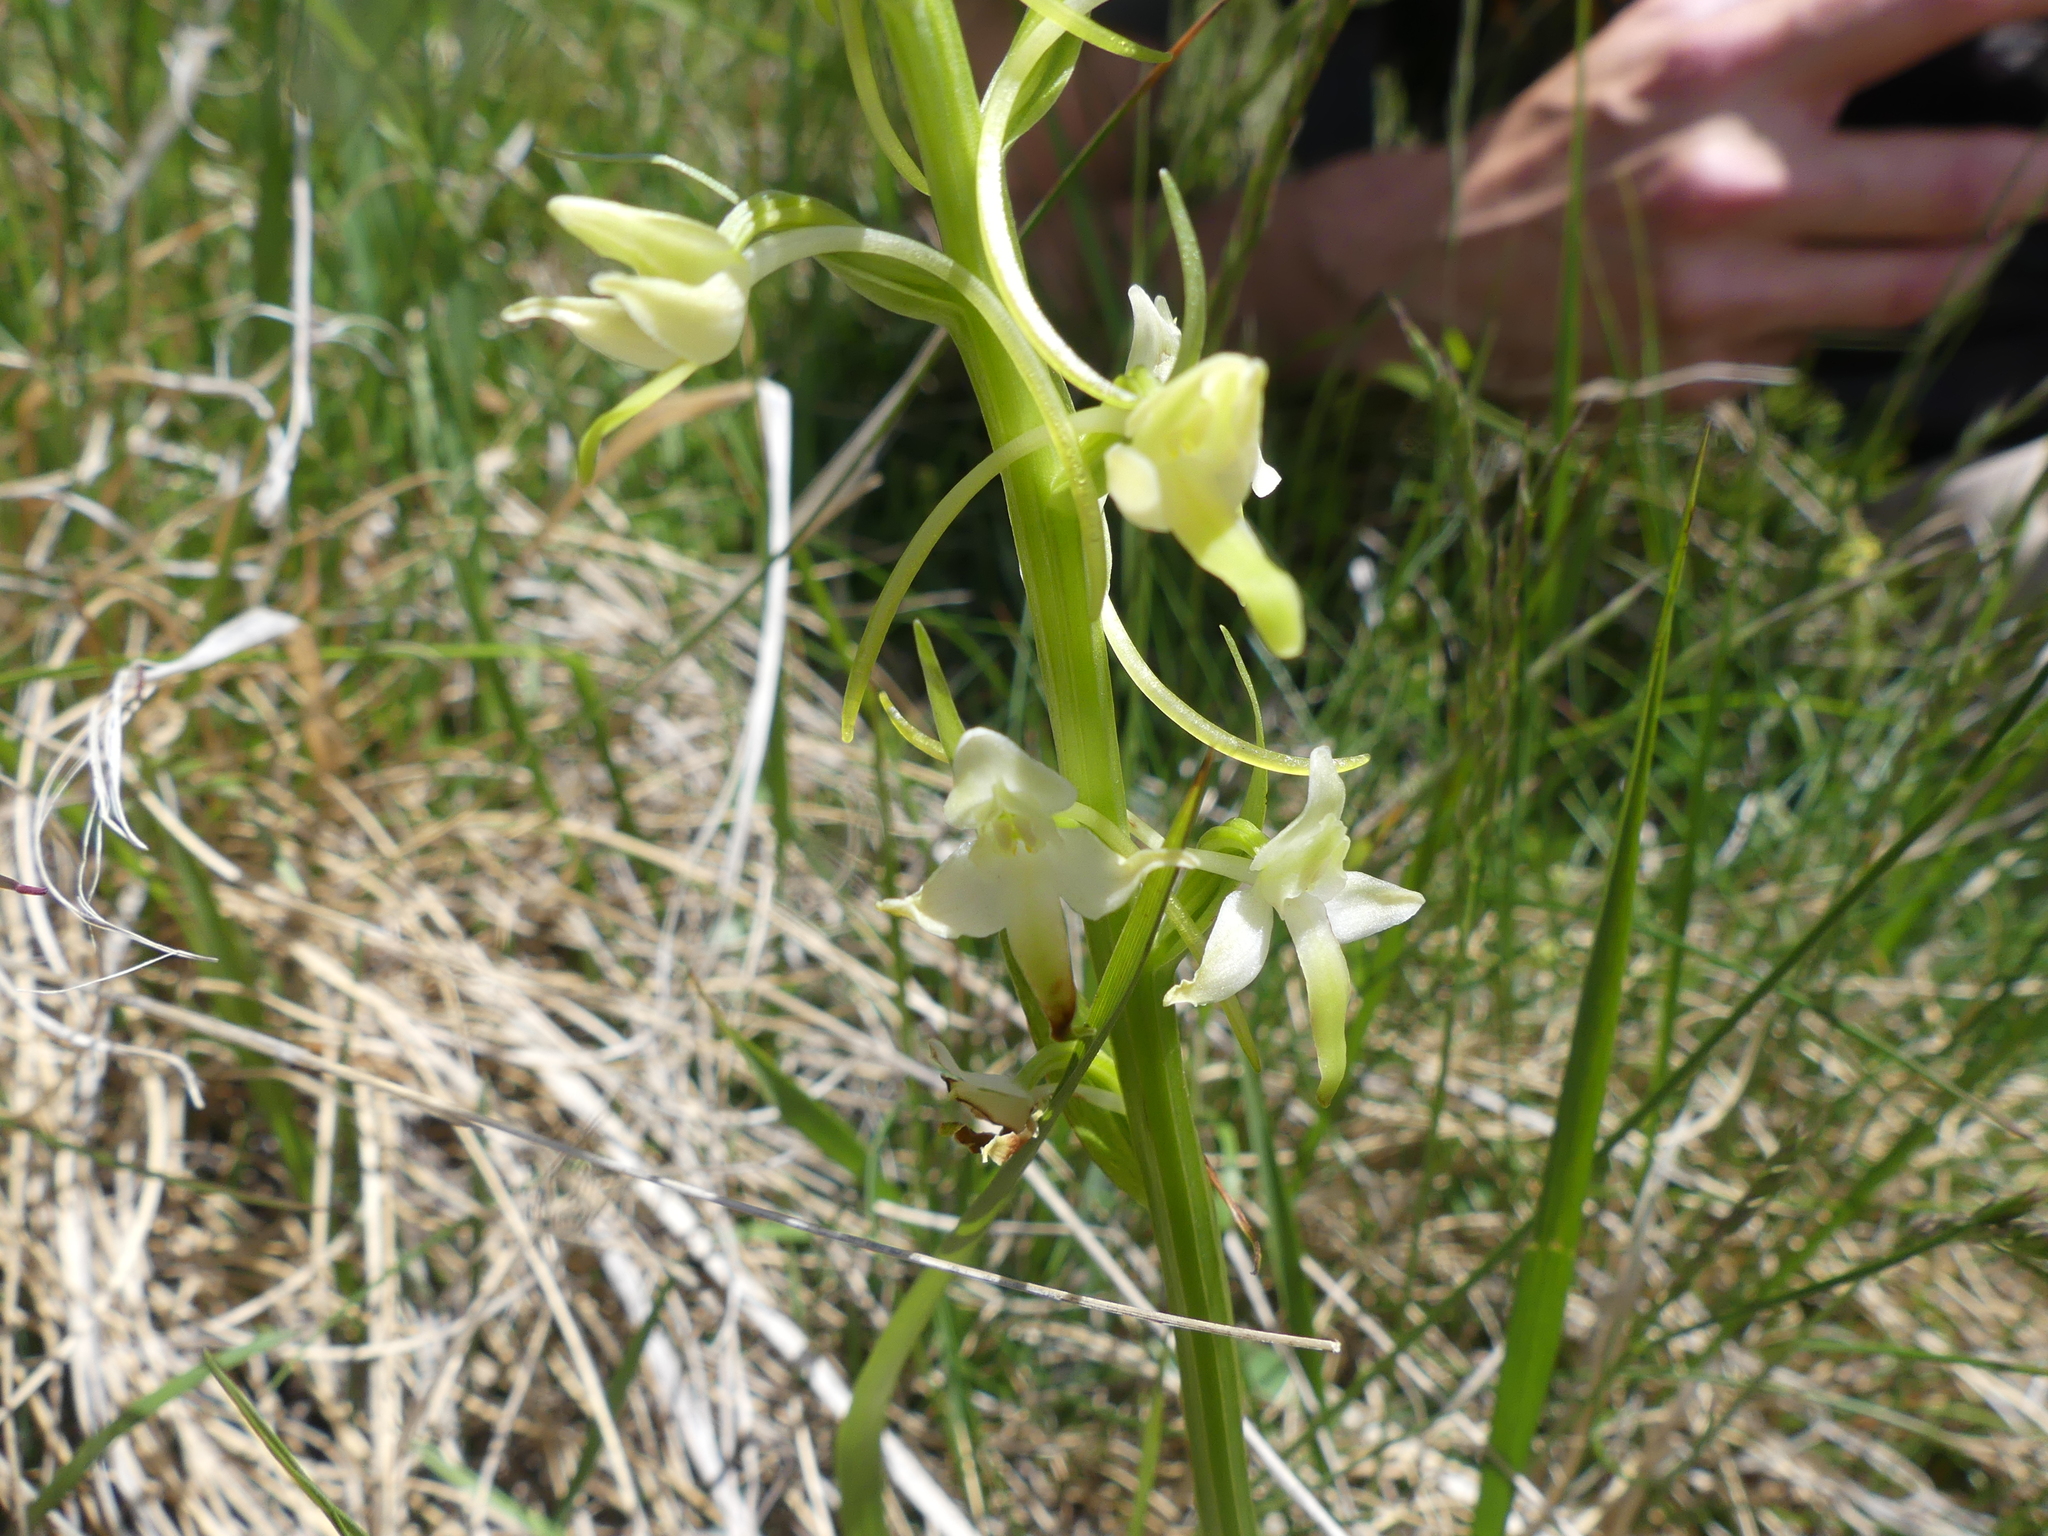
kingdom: Plantae
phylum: Tracheophyta
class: Liliopsida
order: Asparagales
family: Orchidaceae
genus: Platanthera
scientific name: Platanthera bifolia
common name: Lesser butterfly-orchid
